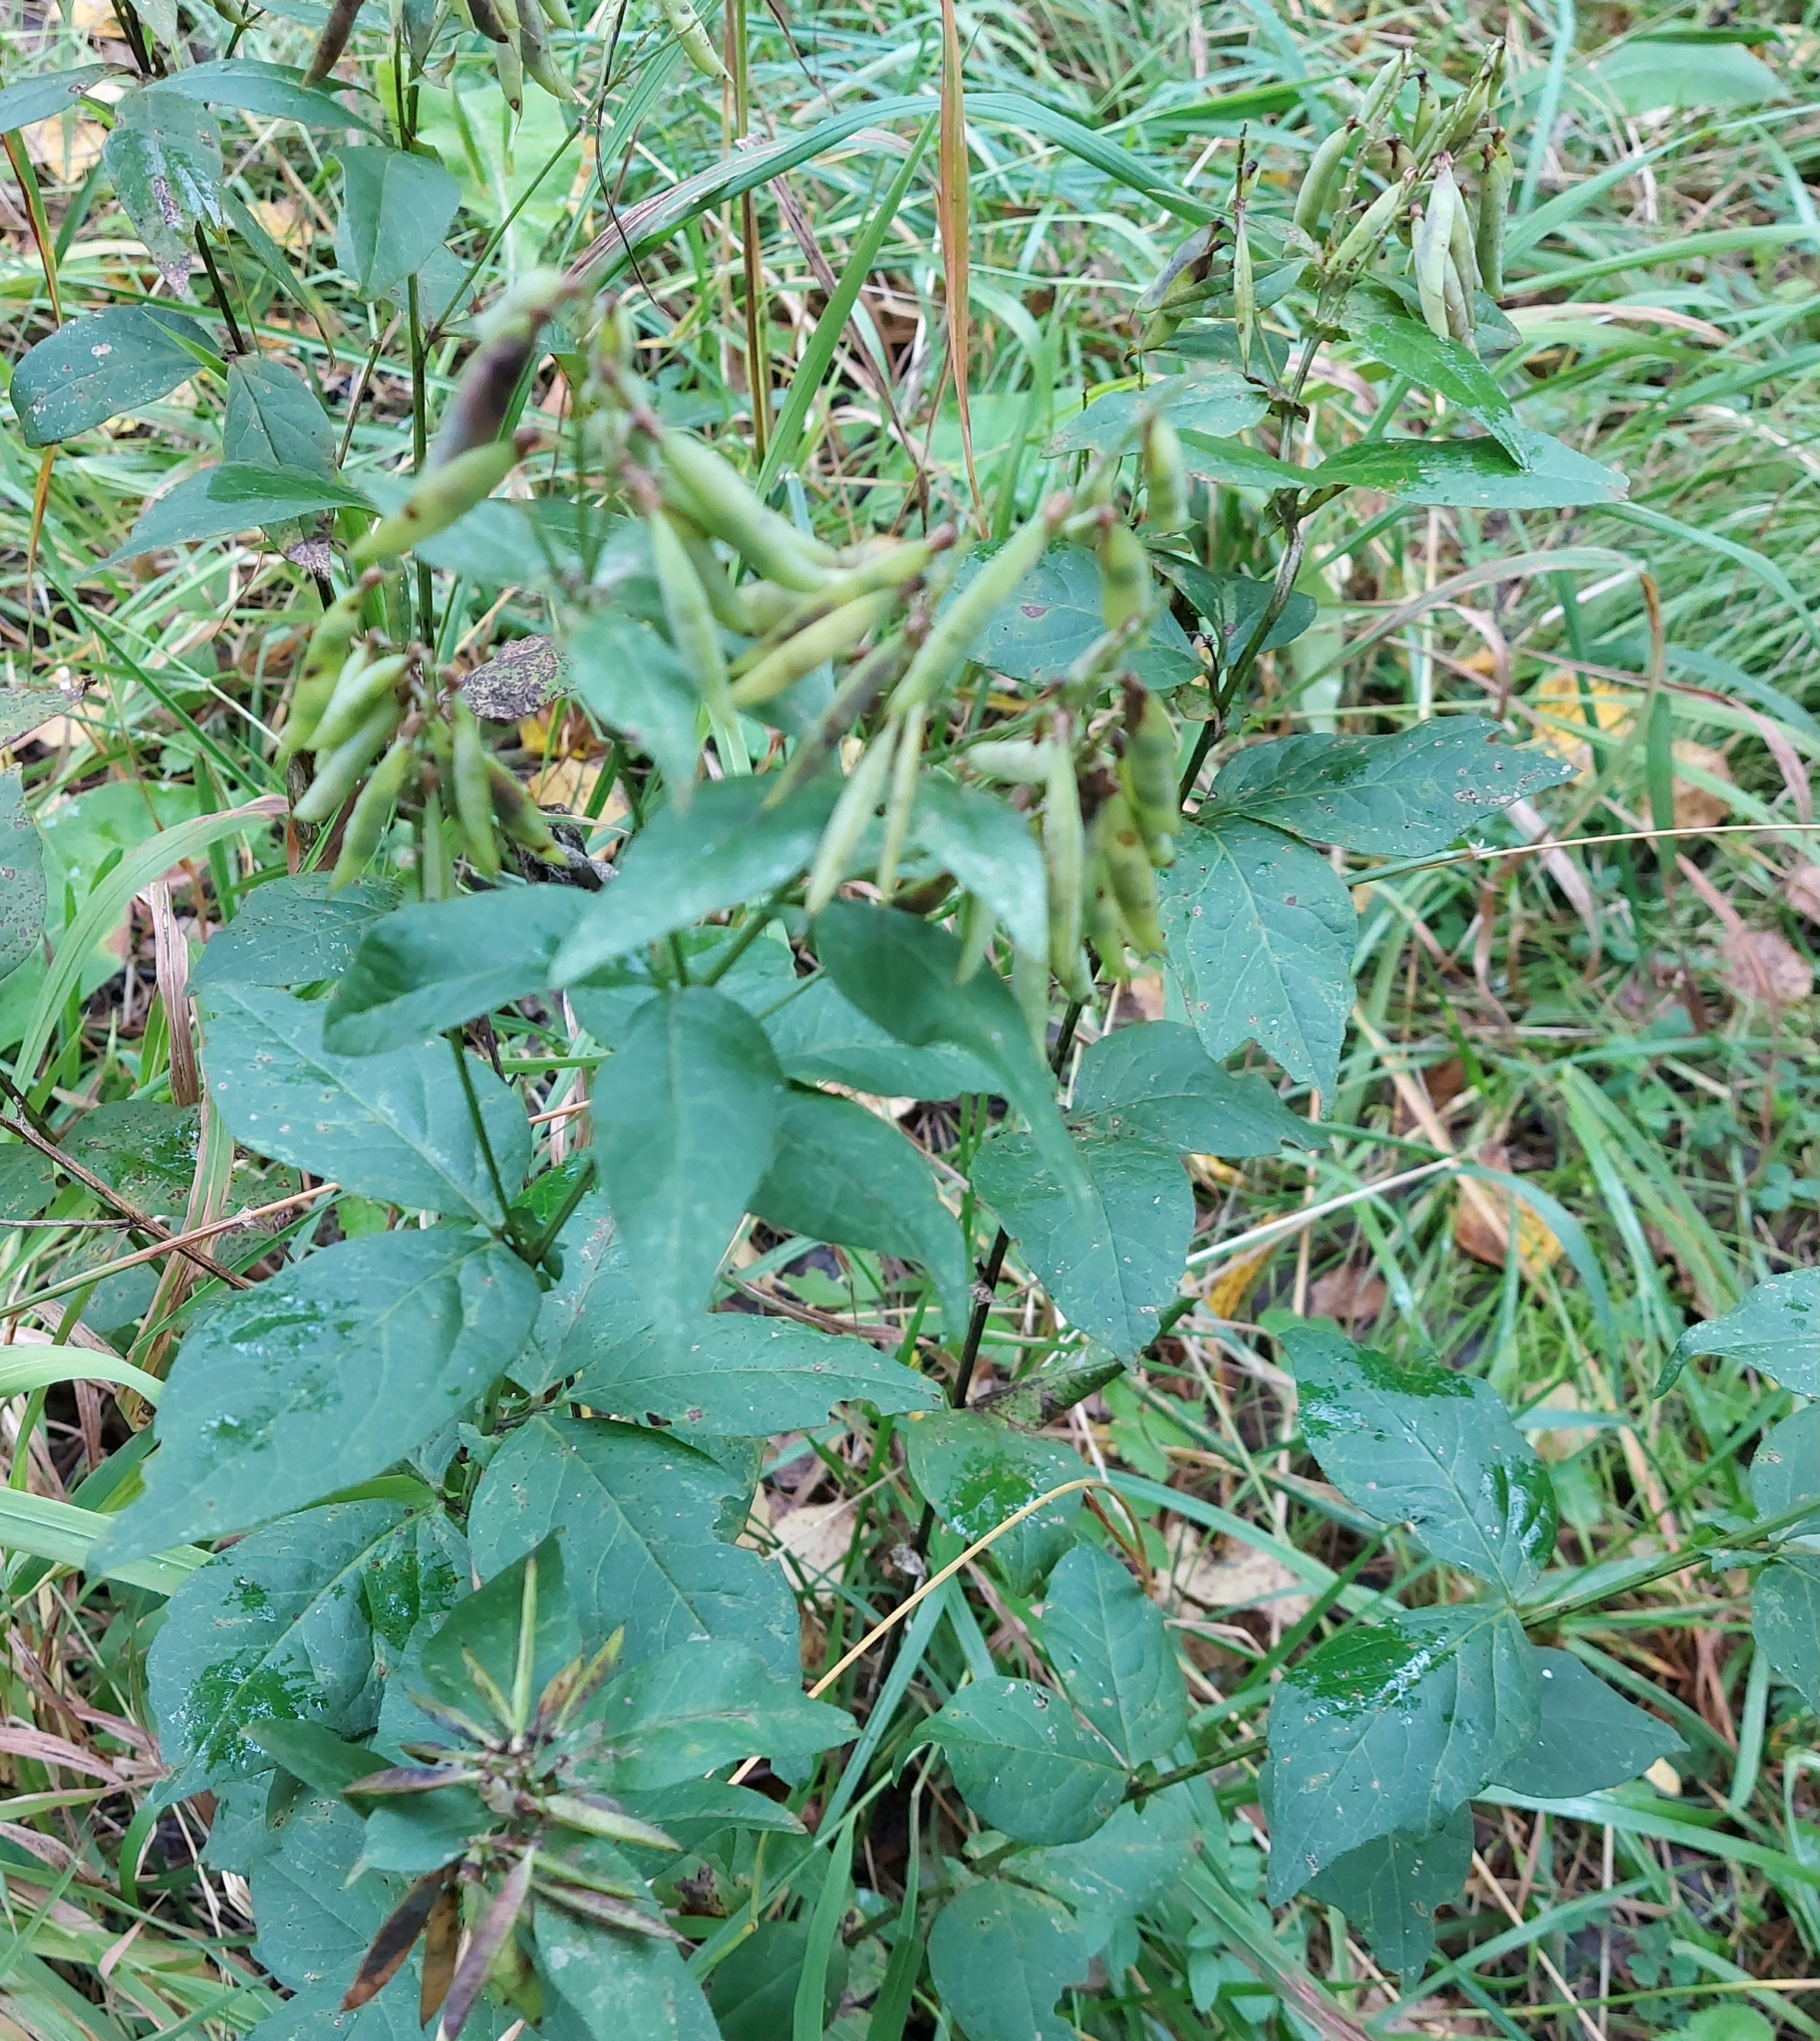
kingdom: Plantae
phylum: Tracheophyta
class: Magnoliopsida
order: Fabales
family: Fabaceae
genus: Vicia
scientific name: Vicia unijuga
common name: Two-leaf vetch
